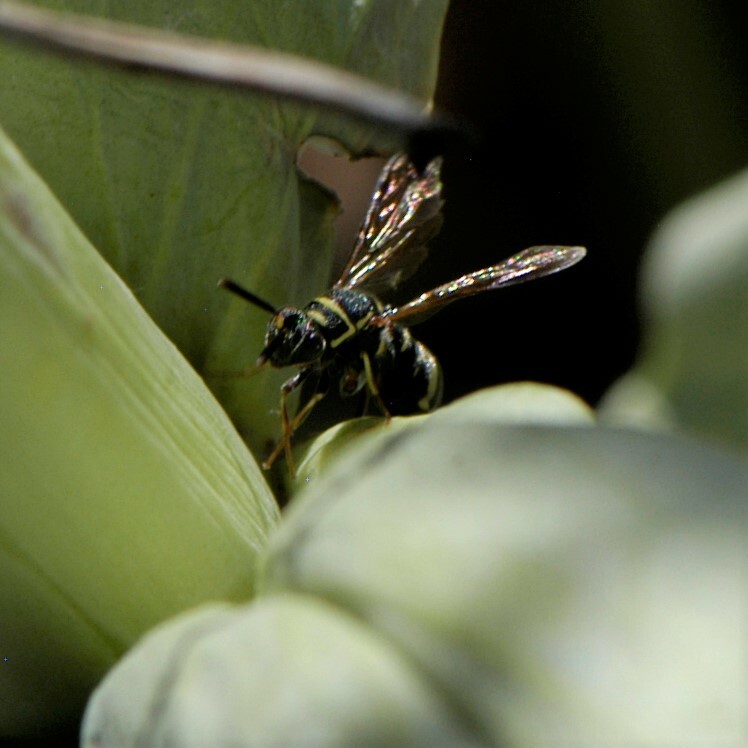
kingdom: Animalia
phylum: Arthropoda
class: Insecta
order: Hymenoptera
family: Leucospidae
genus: Leucospis
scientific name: Leucospis affinis
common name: Wasp
